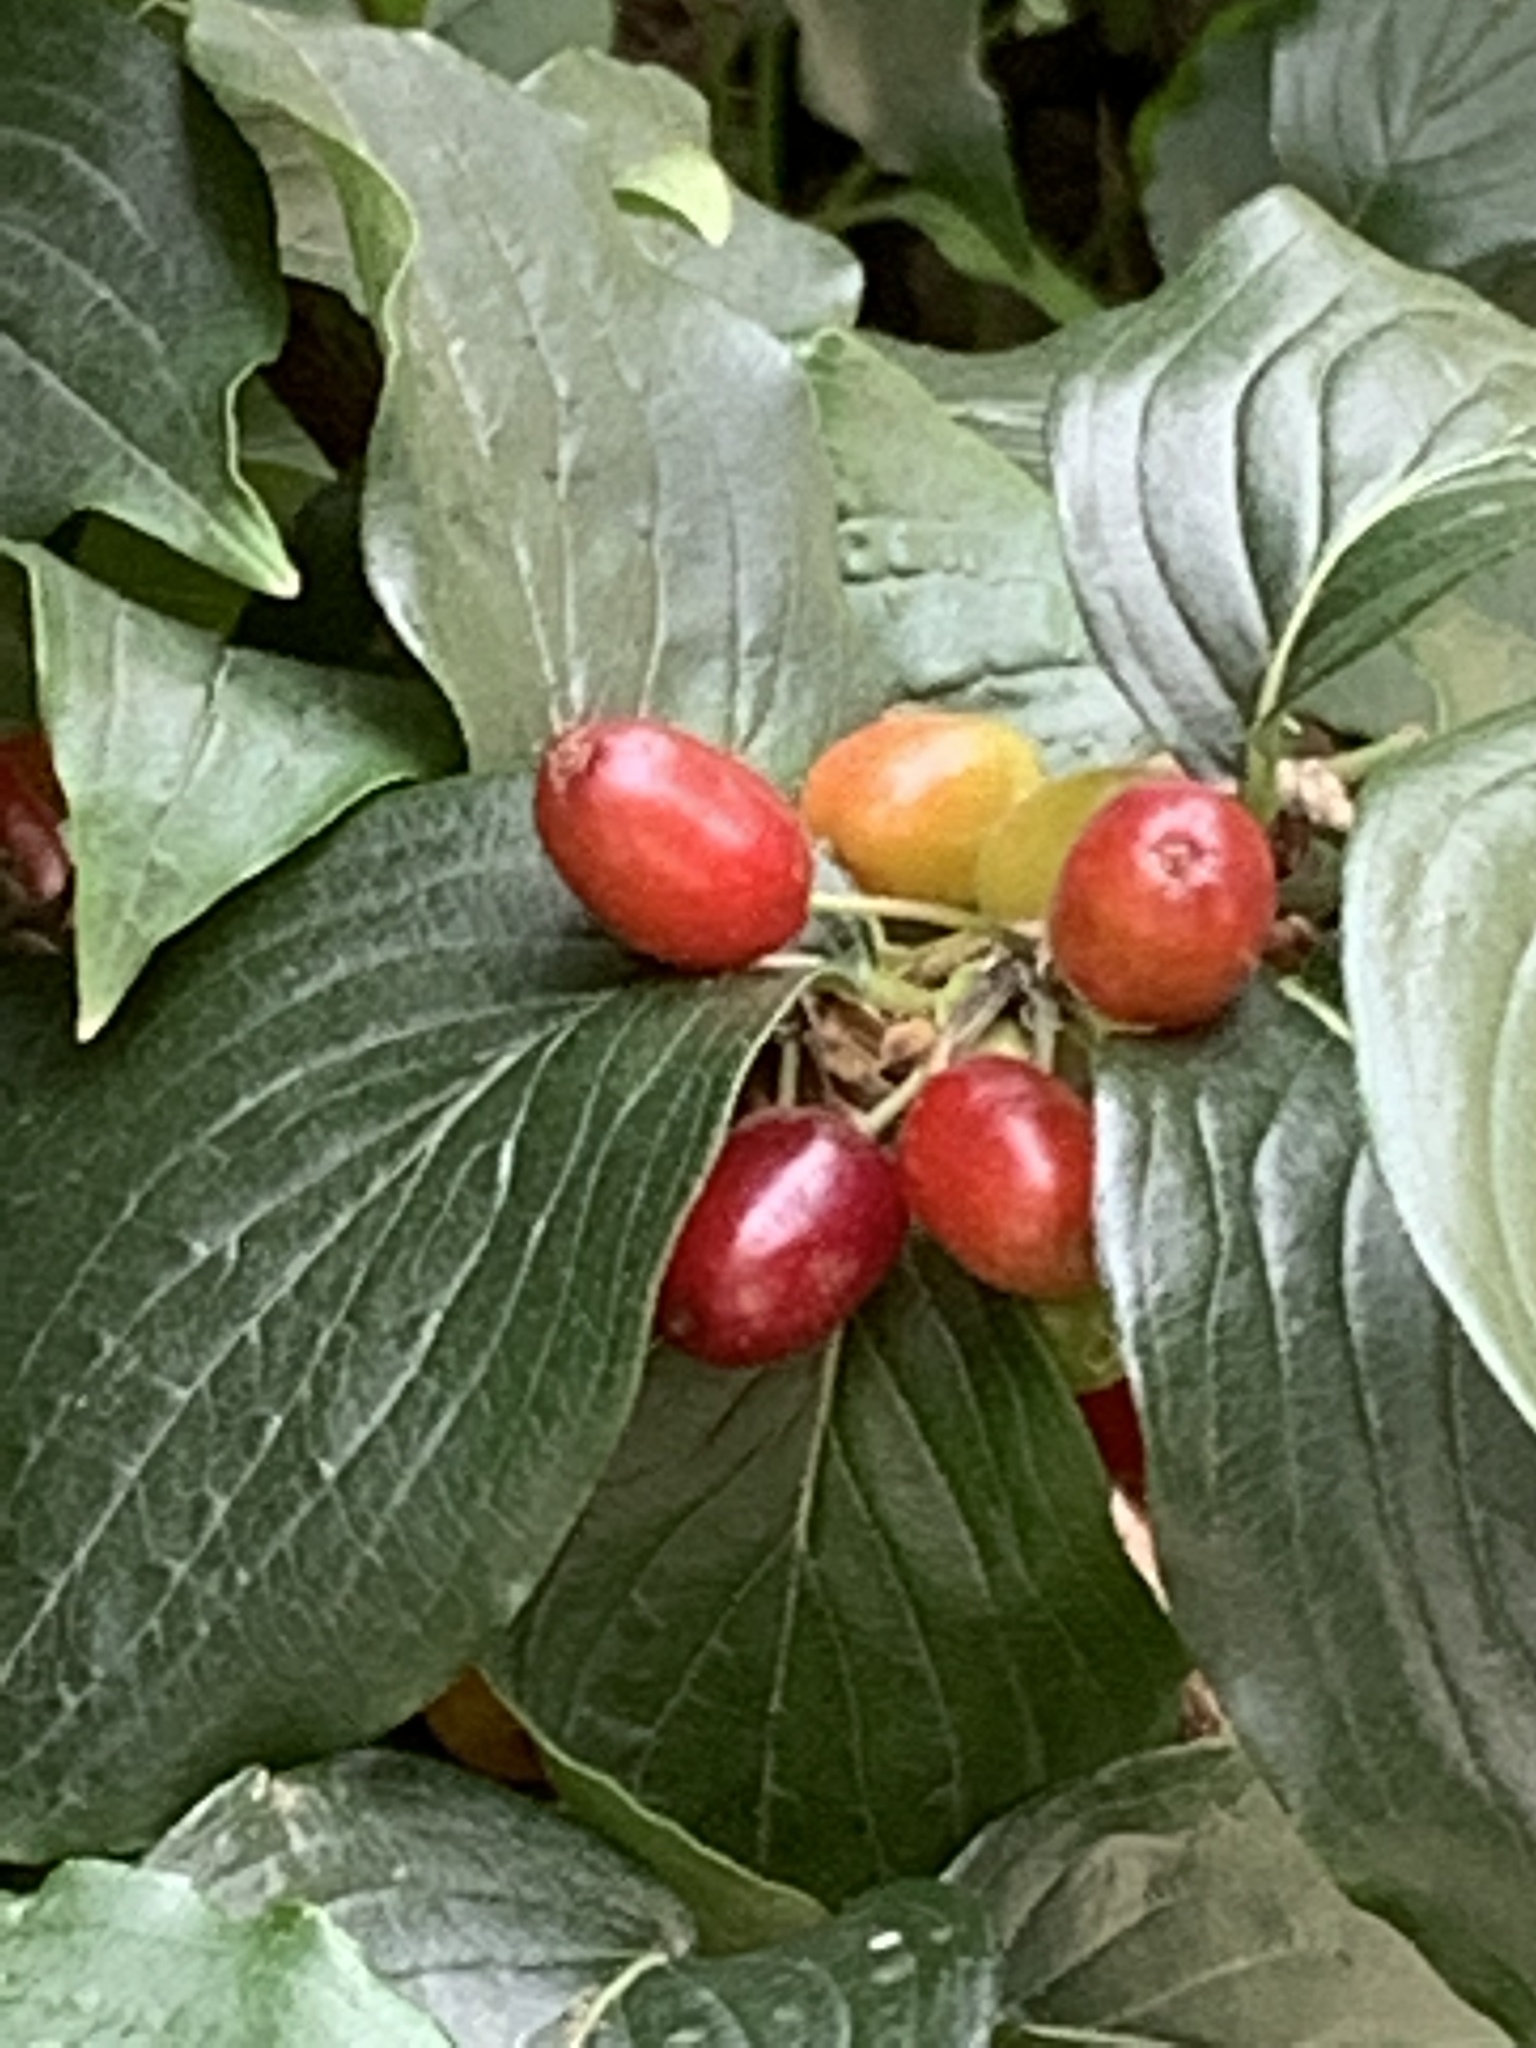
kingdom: Plantae
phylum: Tracheophyta
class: Magnoliopsida
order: Cornales
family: Cornaceae
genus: Cornus
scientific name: Cornus mas
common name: Cornelian-cherry
